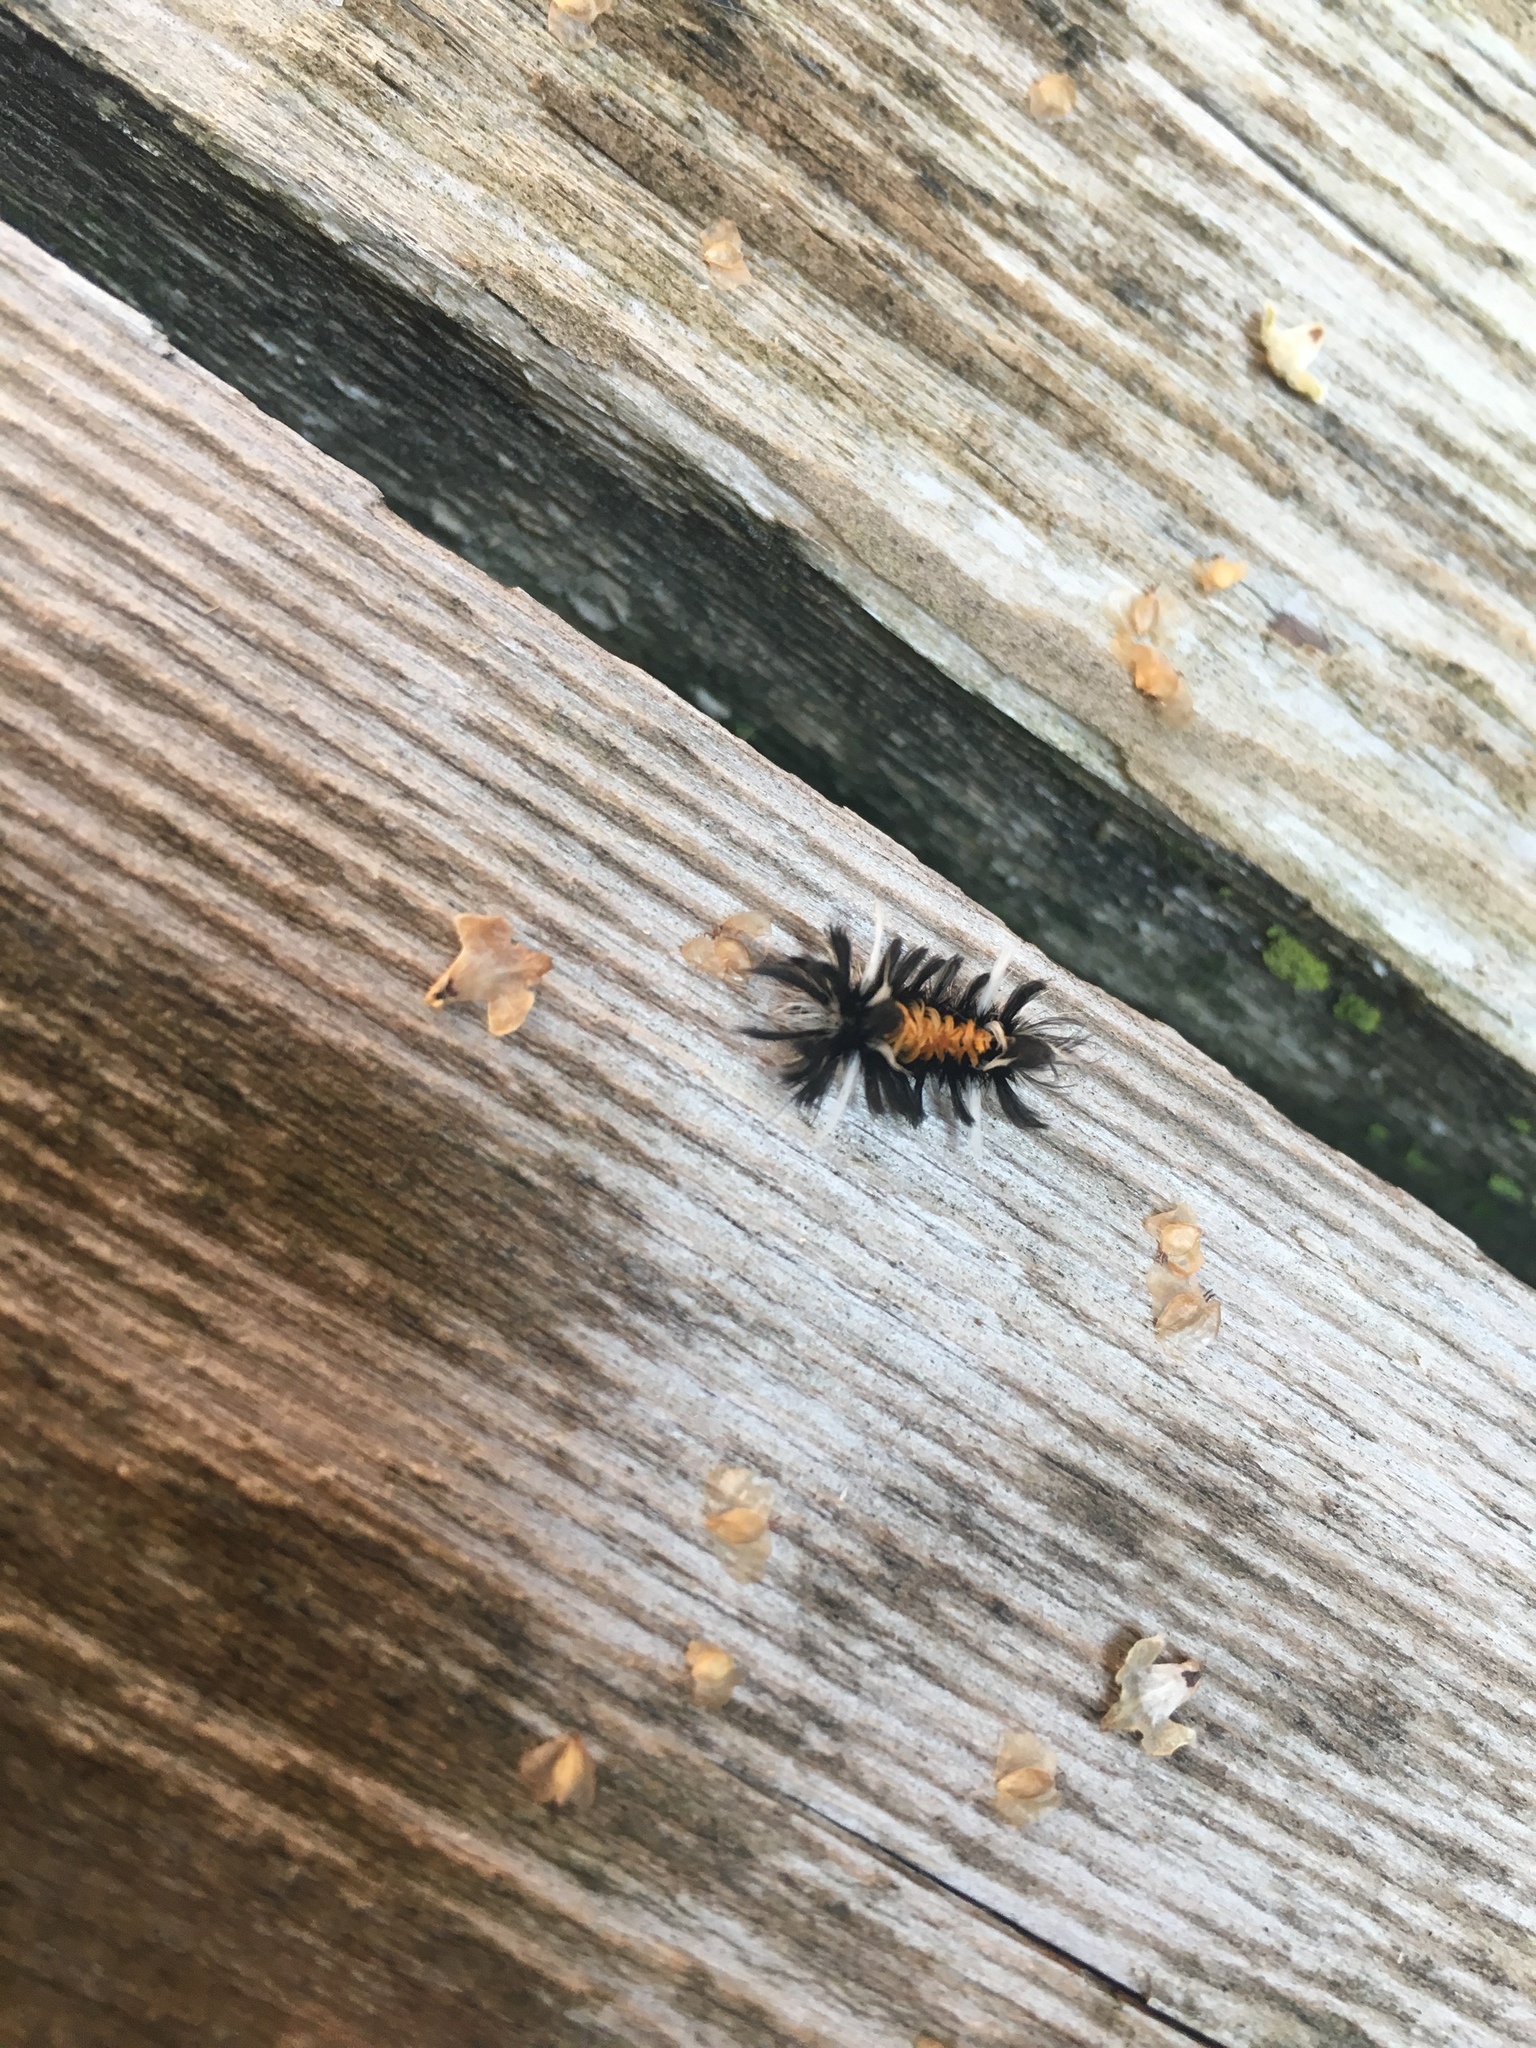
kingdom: Animalia
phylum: Arthropoda
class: Insecta
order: Lepidoptera
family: Erebidae
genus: Euchaetes
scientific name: Euchaetes egle
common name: Milkweed tussock moth
